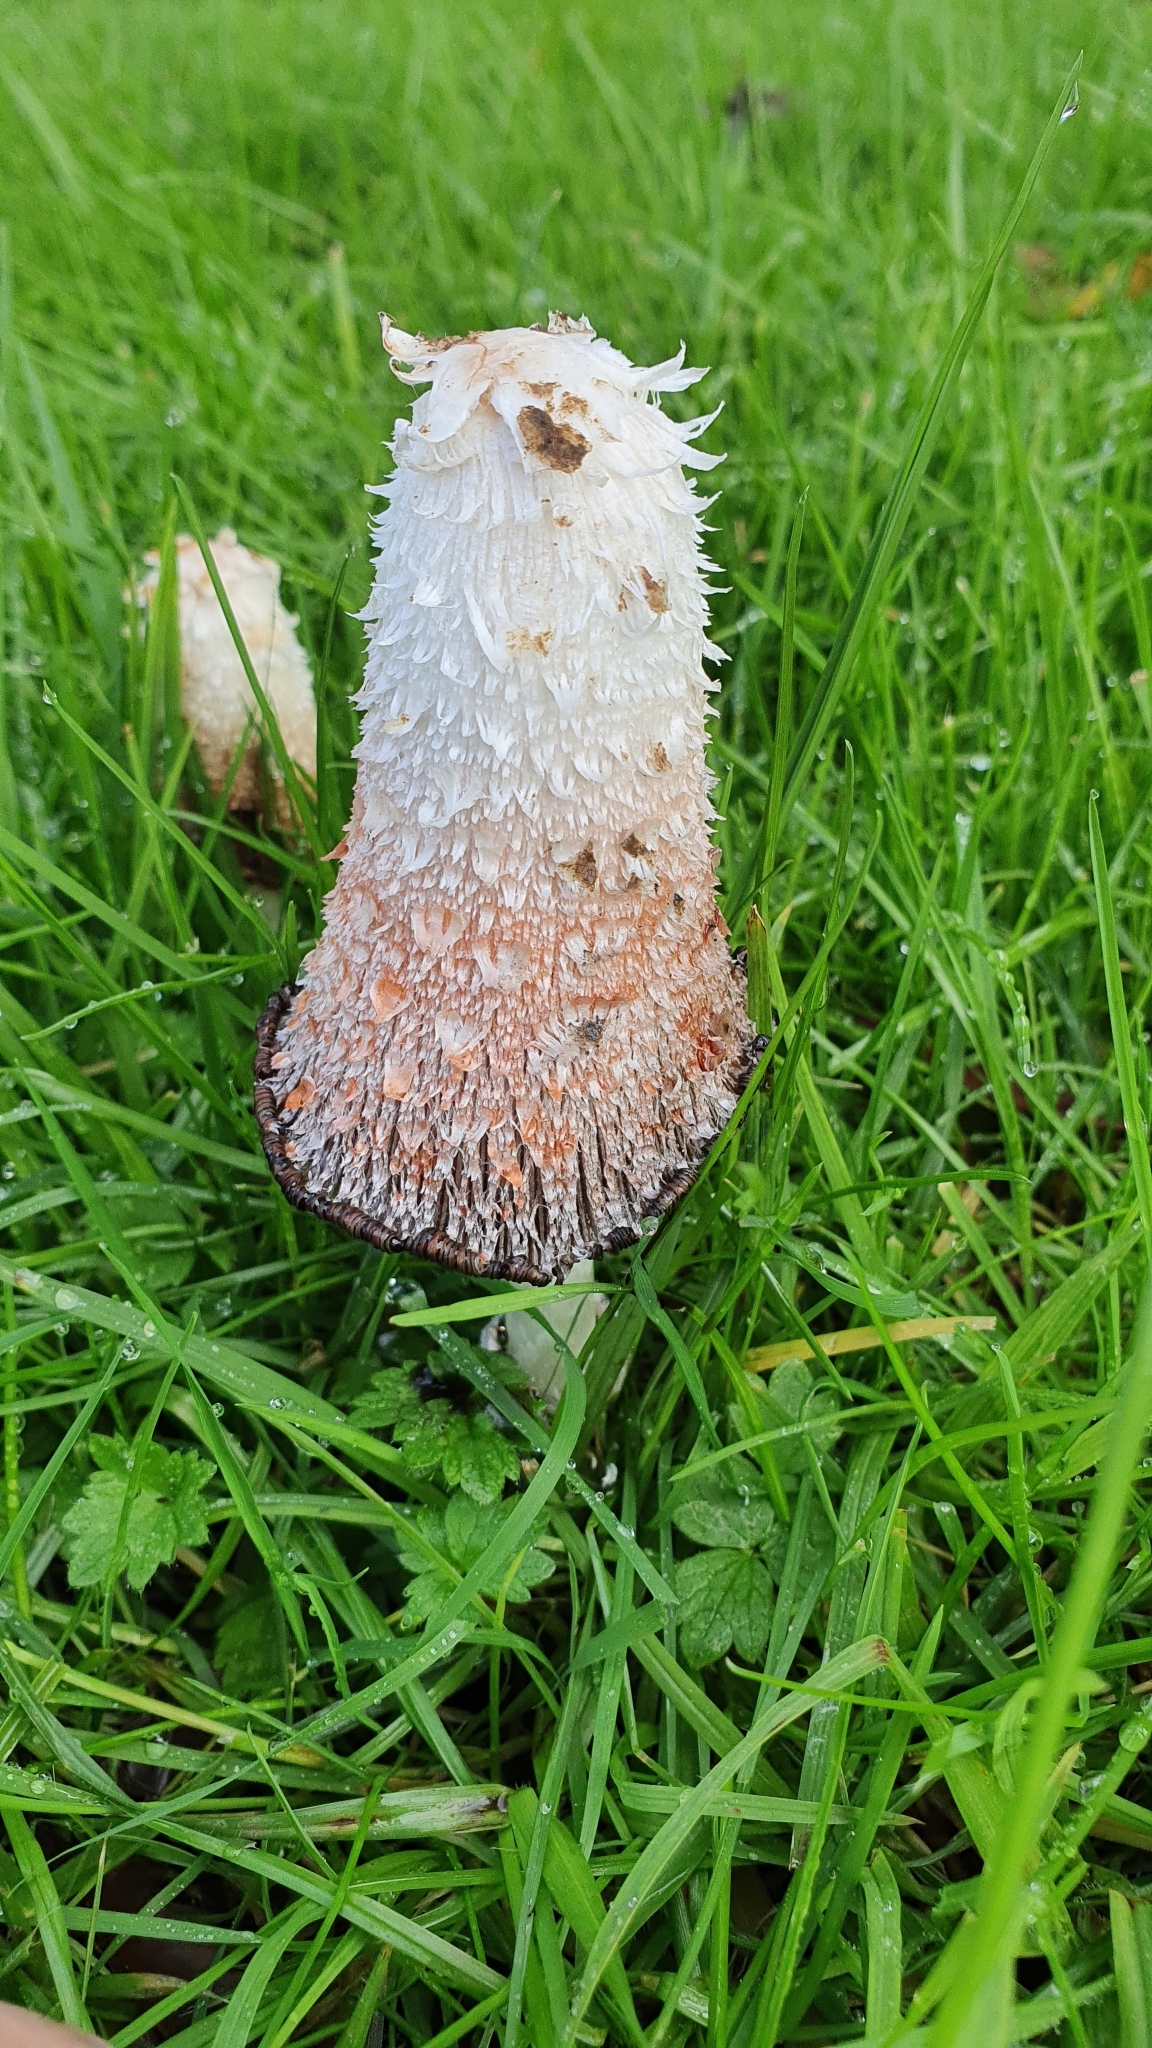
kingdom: Fungi
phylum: Basidiomycota
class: Agaricomycetes
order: Agaricales
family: Agaricaceae
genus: Coprinus
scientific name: Coprinus comatus
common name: Lawyer's wig
